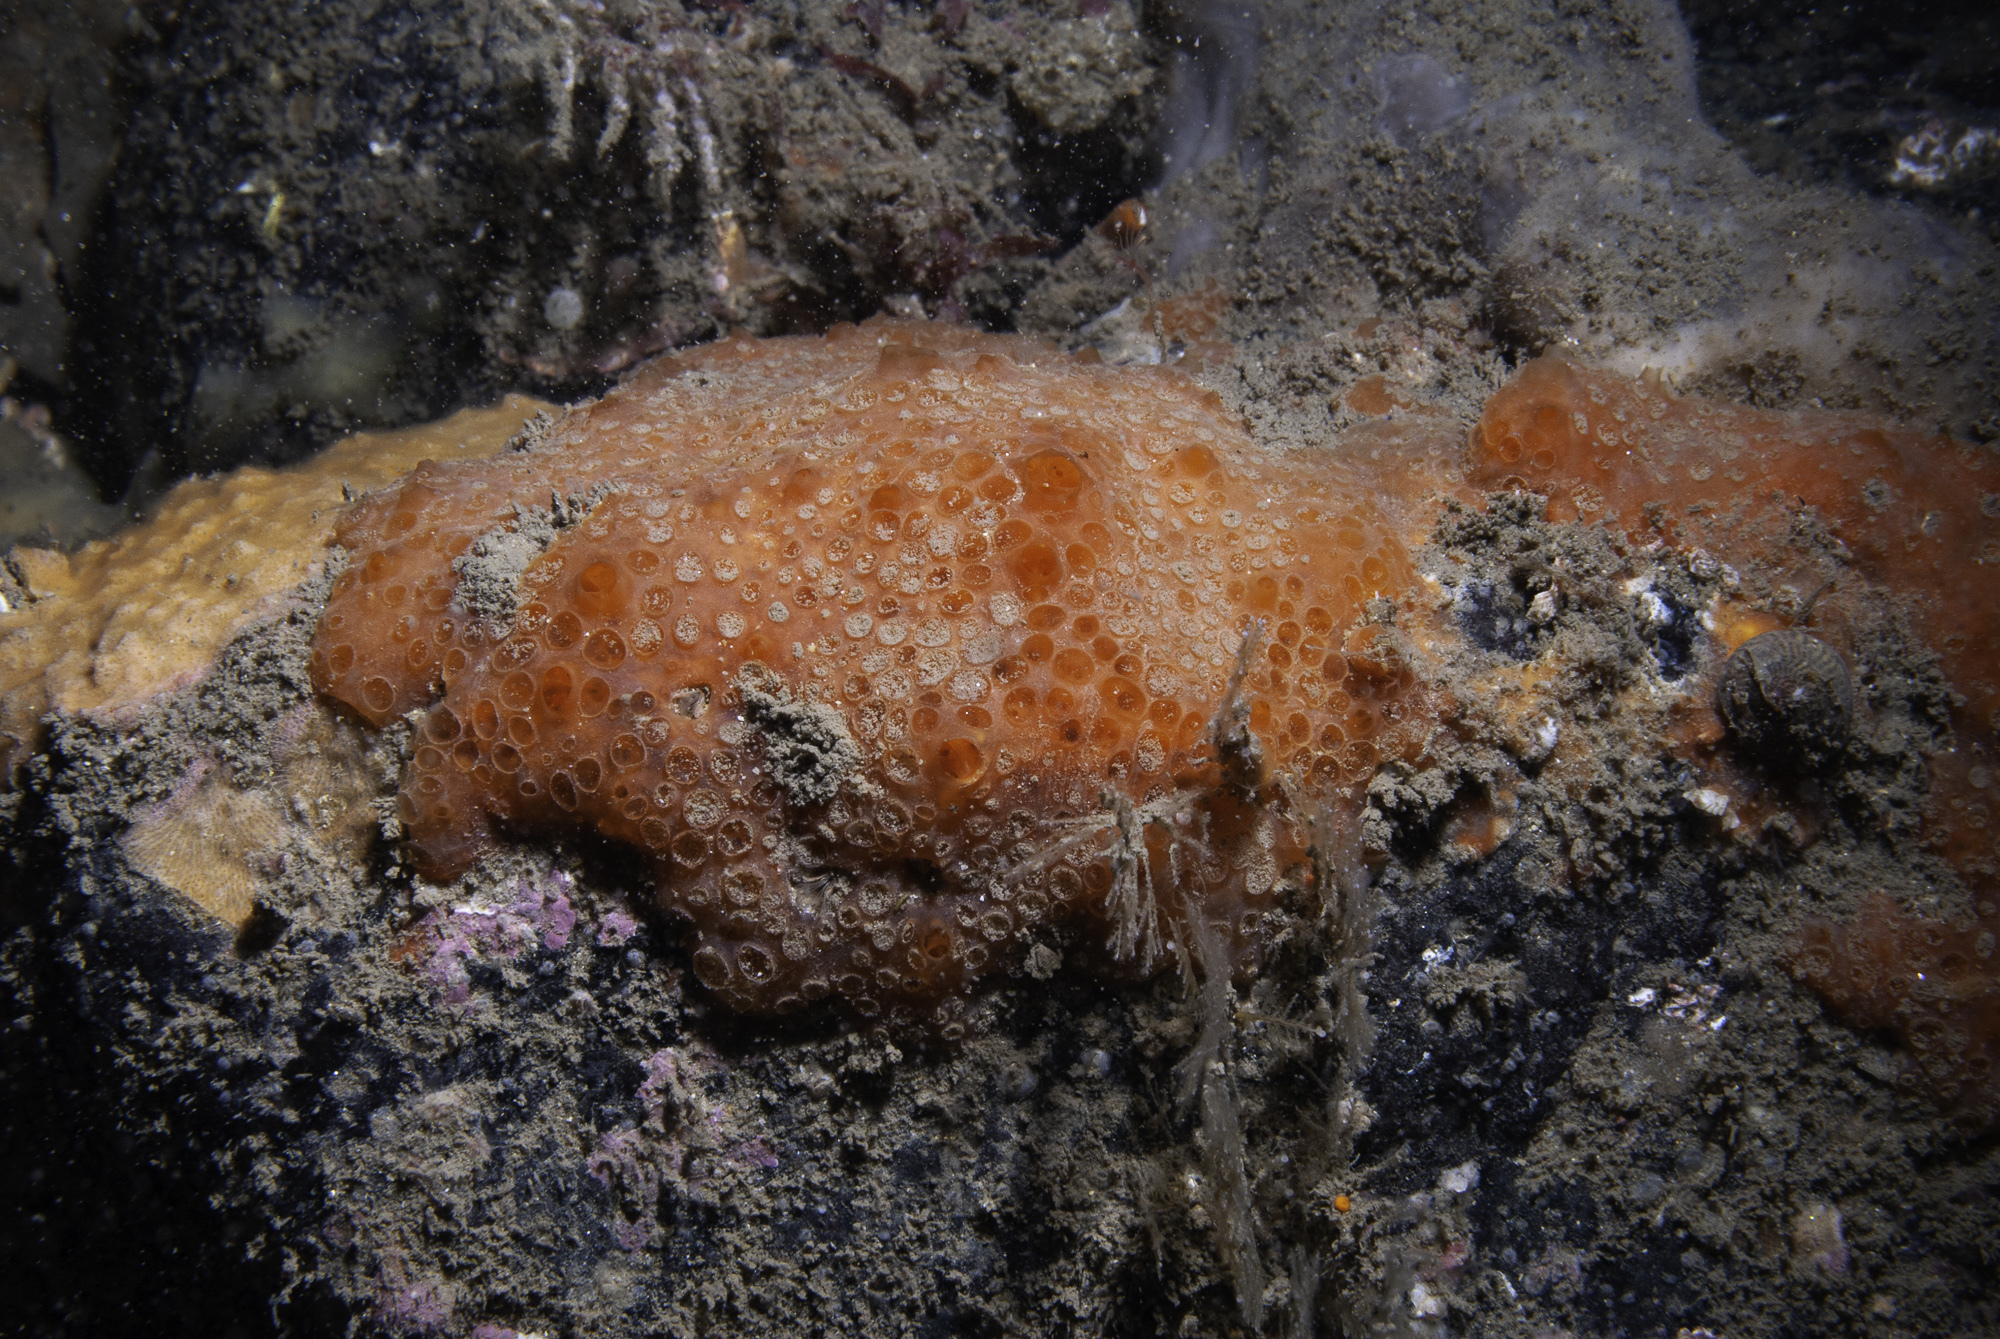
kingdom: Animalia
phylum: Porifera
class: Demospongiae
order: Poecilosclerida
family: Hymedesmiidae
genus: Phorbas
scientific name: Phorbas fictitius
